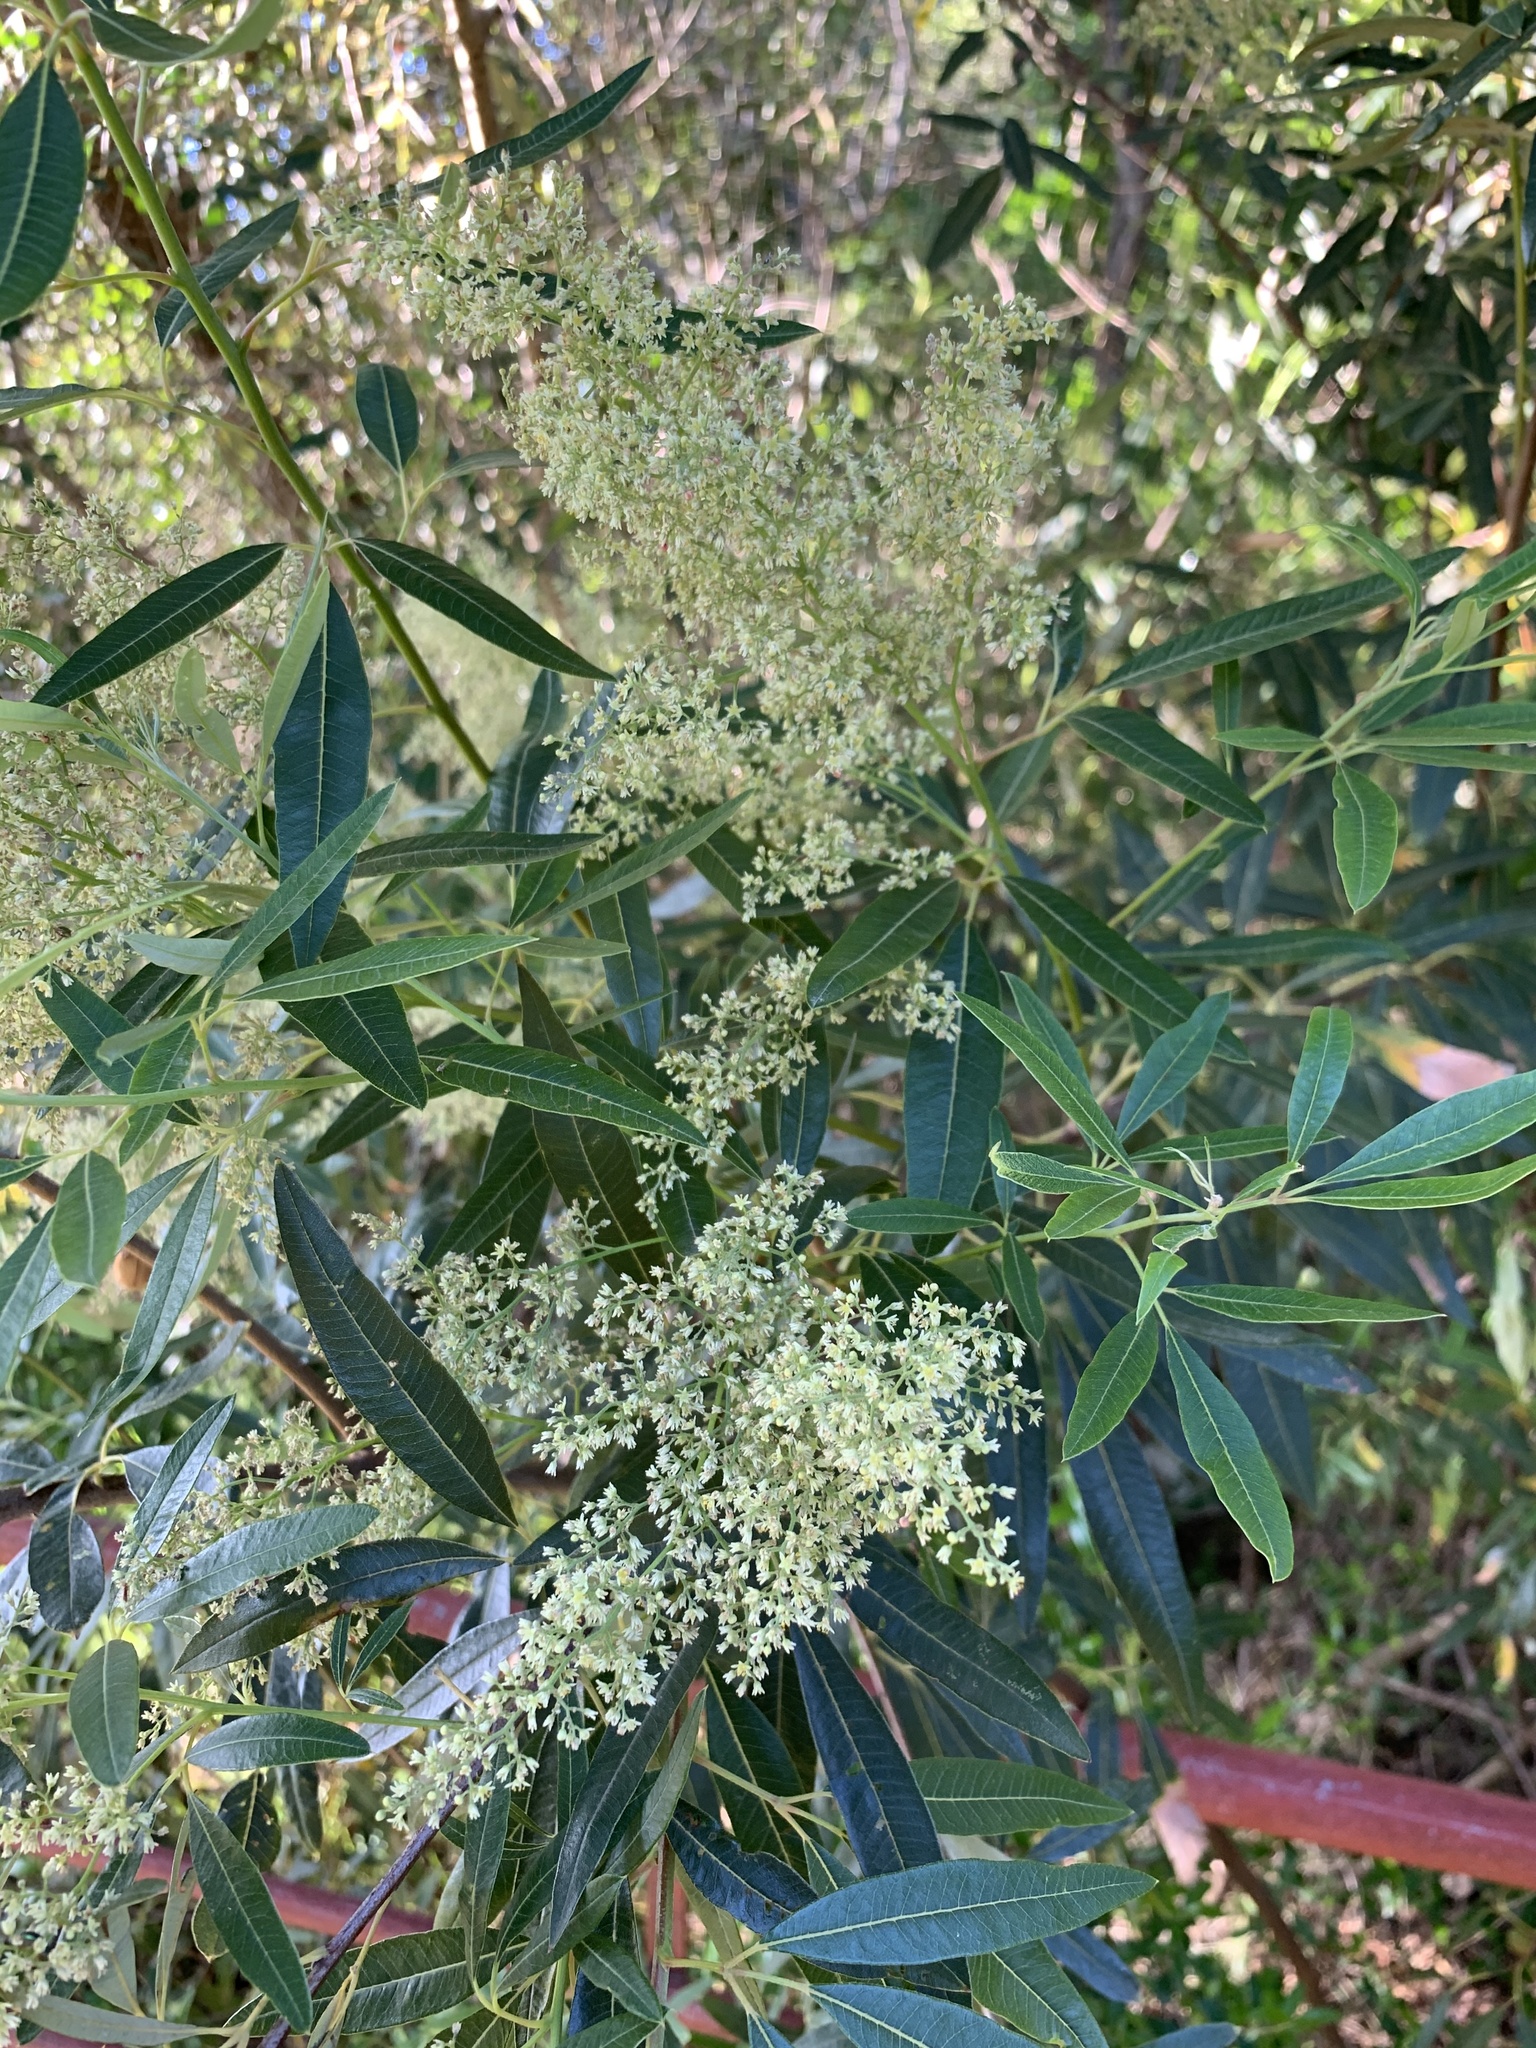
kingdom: Plantae
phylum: Tracheophyta
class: Magnoliopsida
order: Sapindales
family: Anacardiaceae
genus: Searsia
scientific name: Searsia angustifolia
